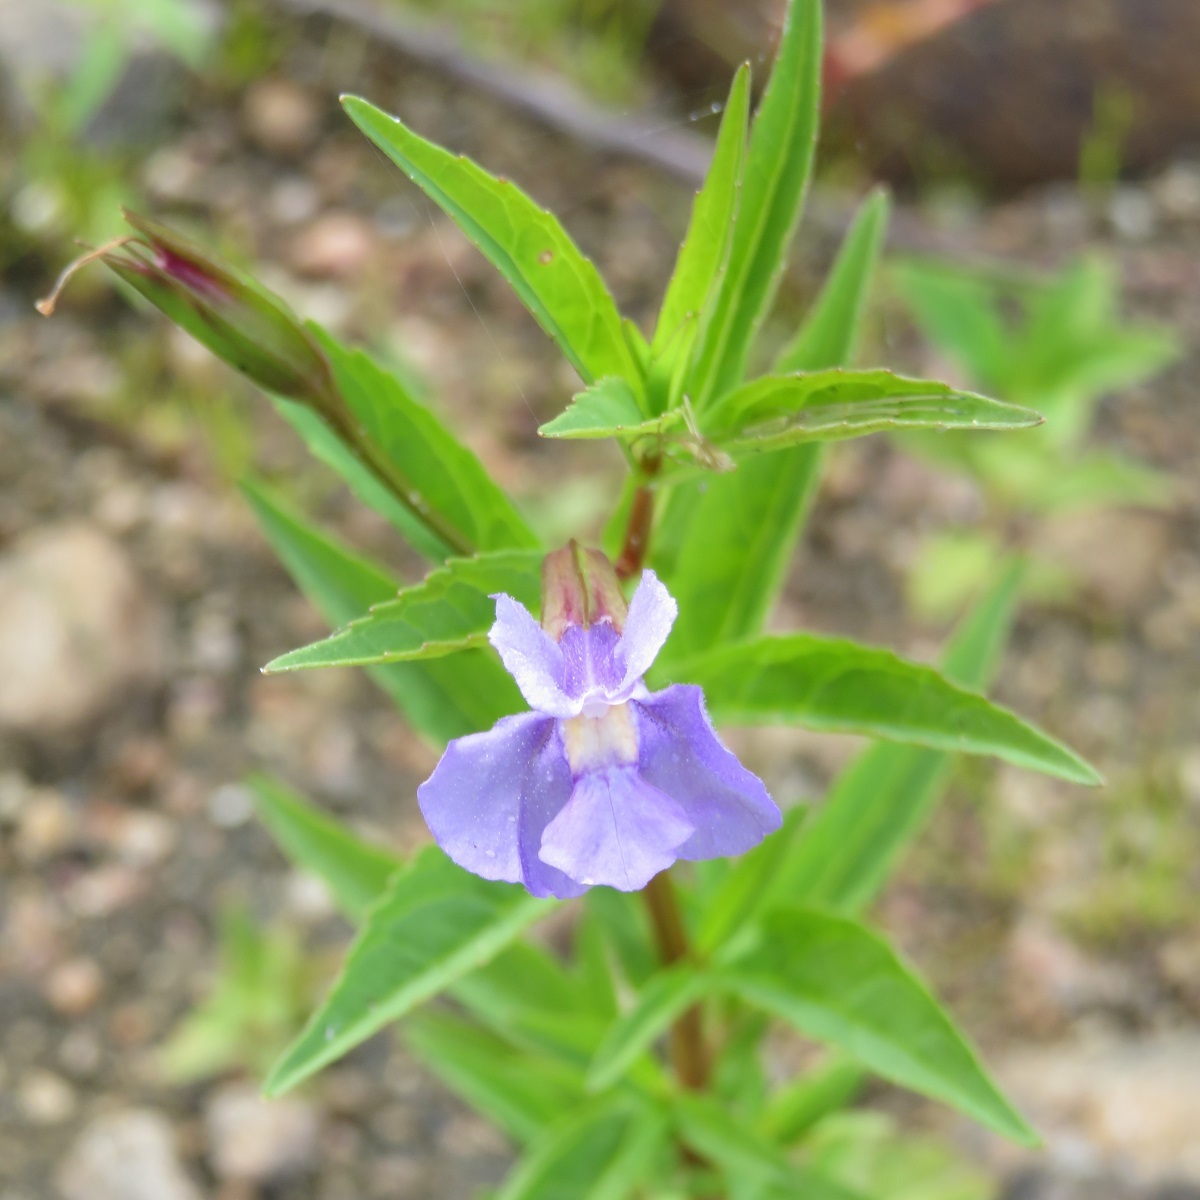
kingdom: Plantae
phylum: Tracheophyta
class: Magnoliopsida
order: Lamiales
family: Phrymaceae
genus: Mimulus
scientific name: Mimulus ringens
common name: Allegheny monkeyflower
